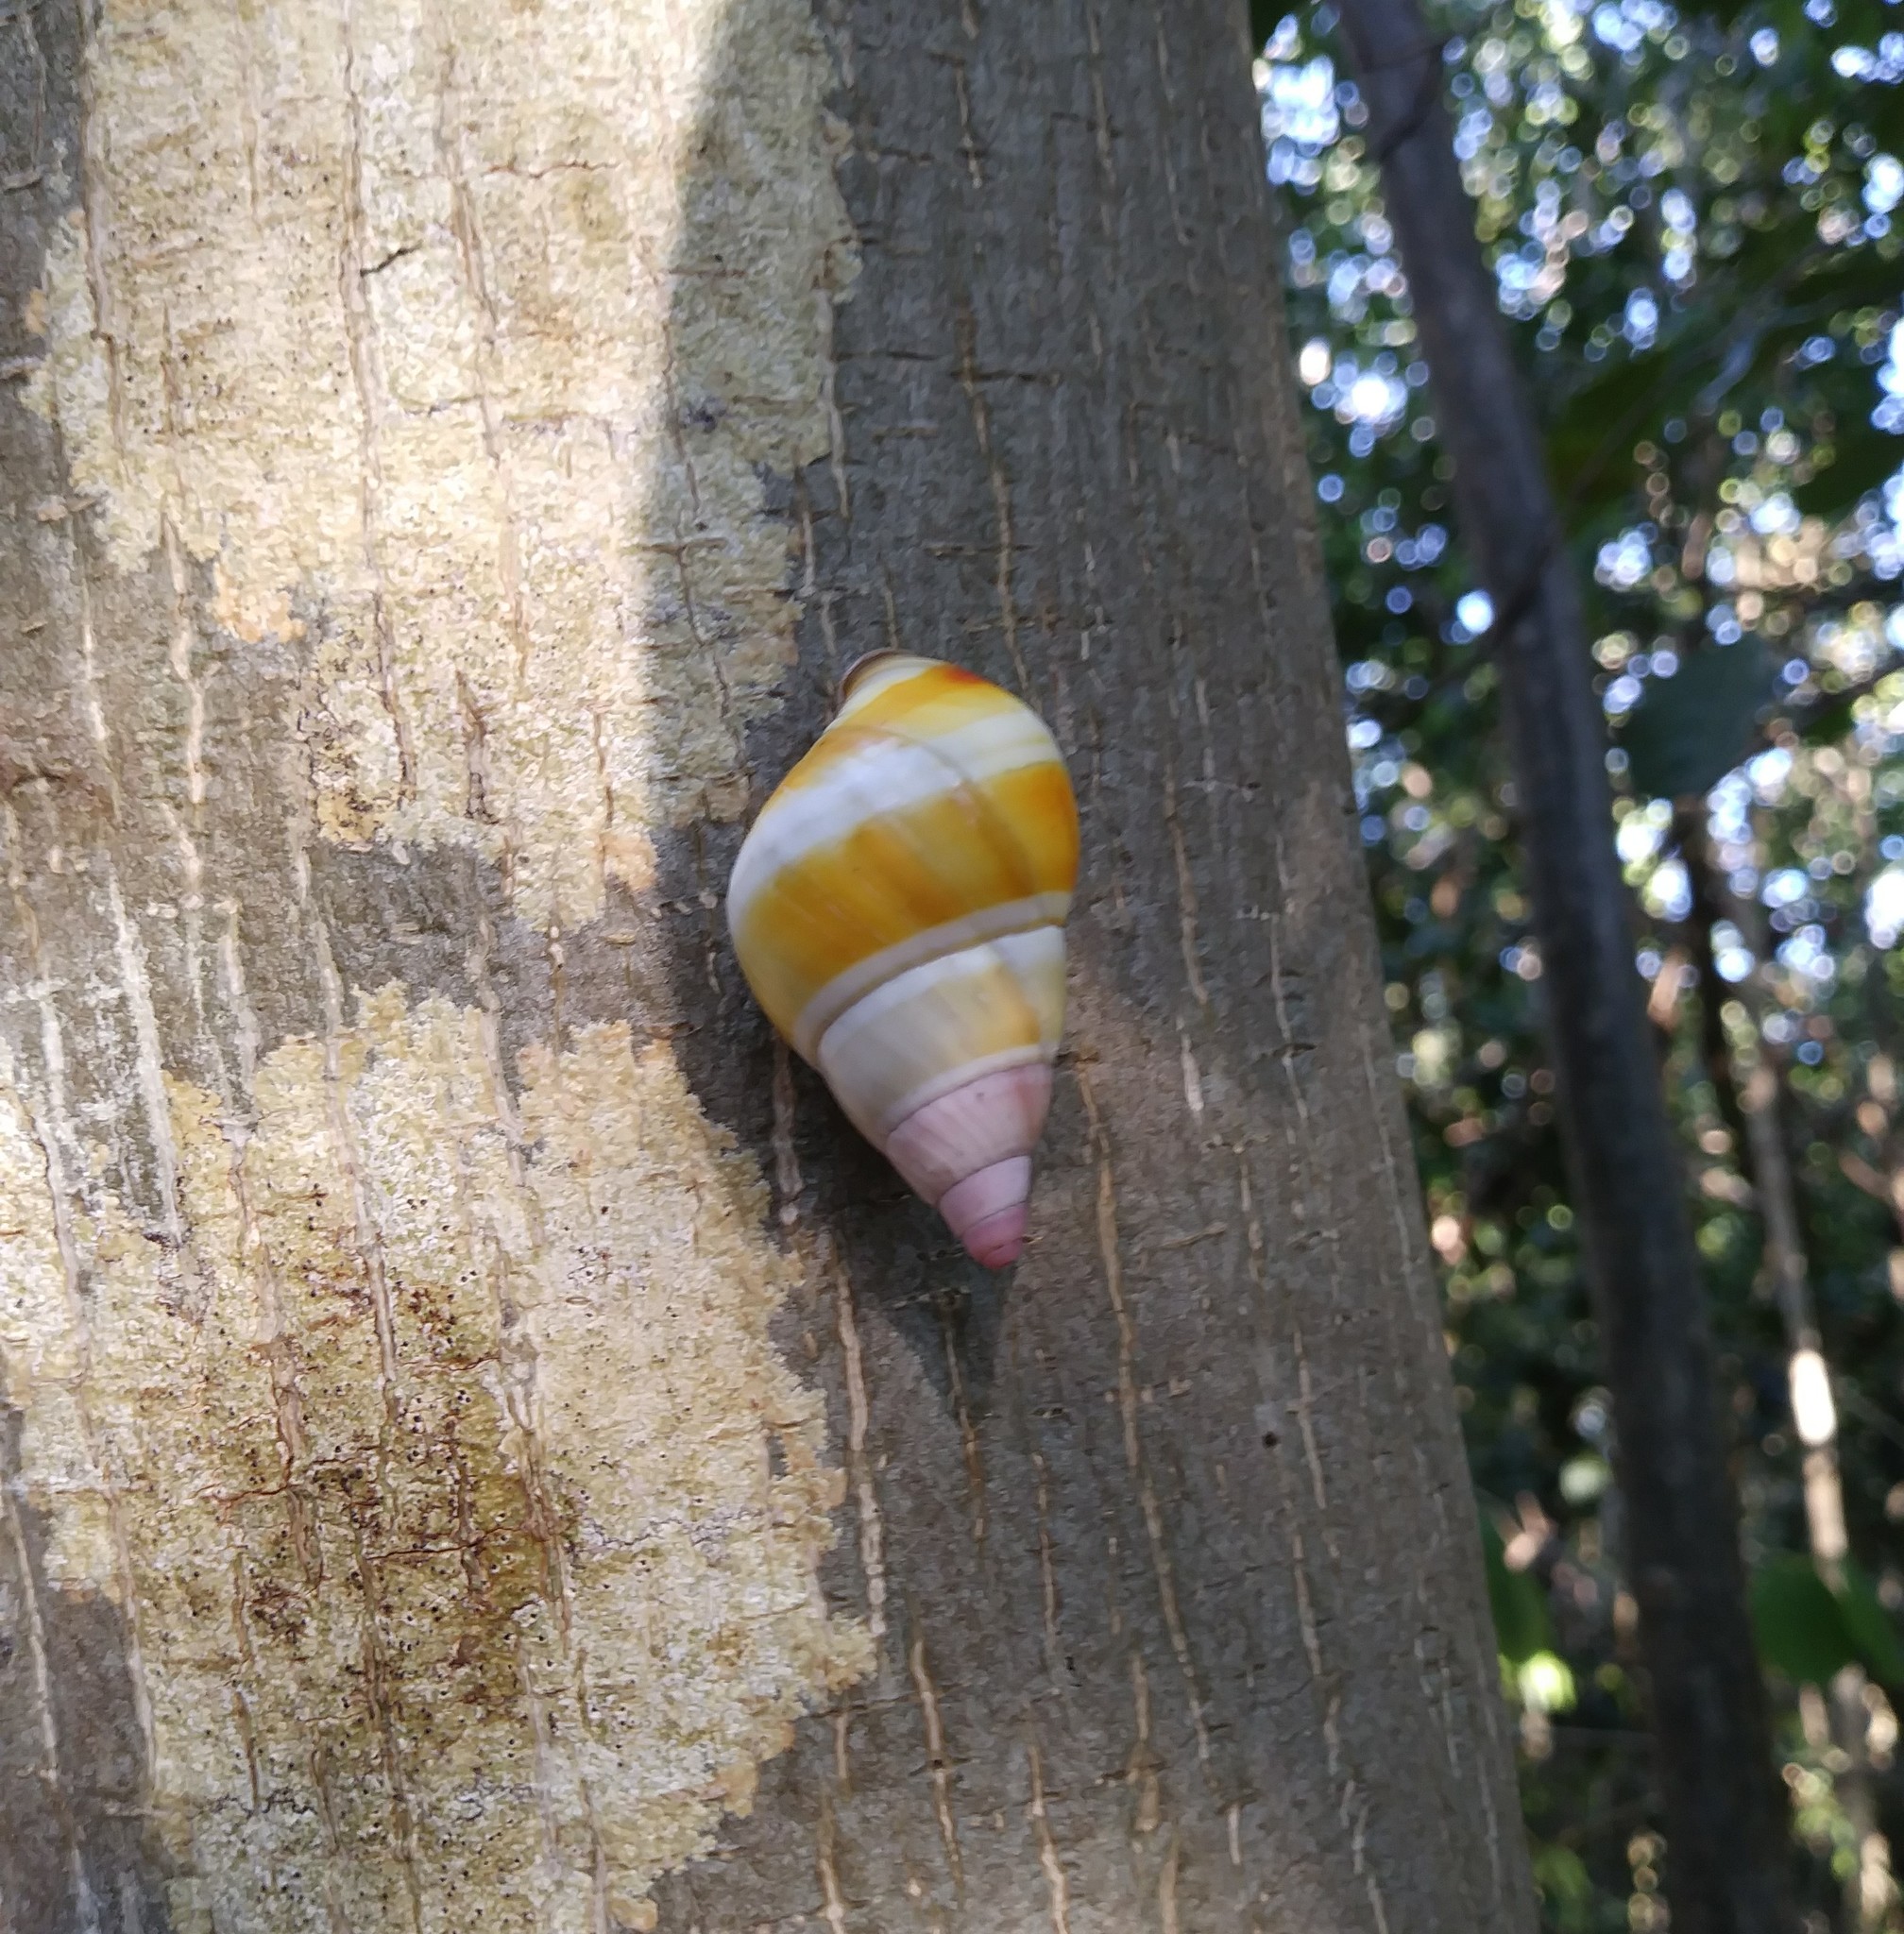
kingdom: Animalia
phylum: Mollusca
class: Gastropoda
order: Stylommatophora
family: Orthalicidae
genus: Liguus
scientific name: Liguus fasciatus
